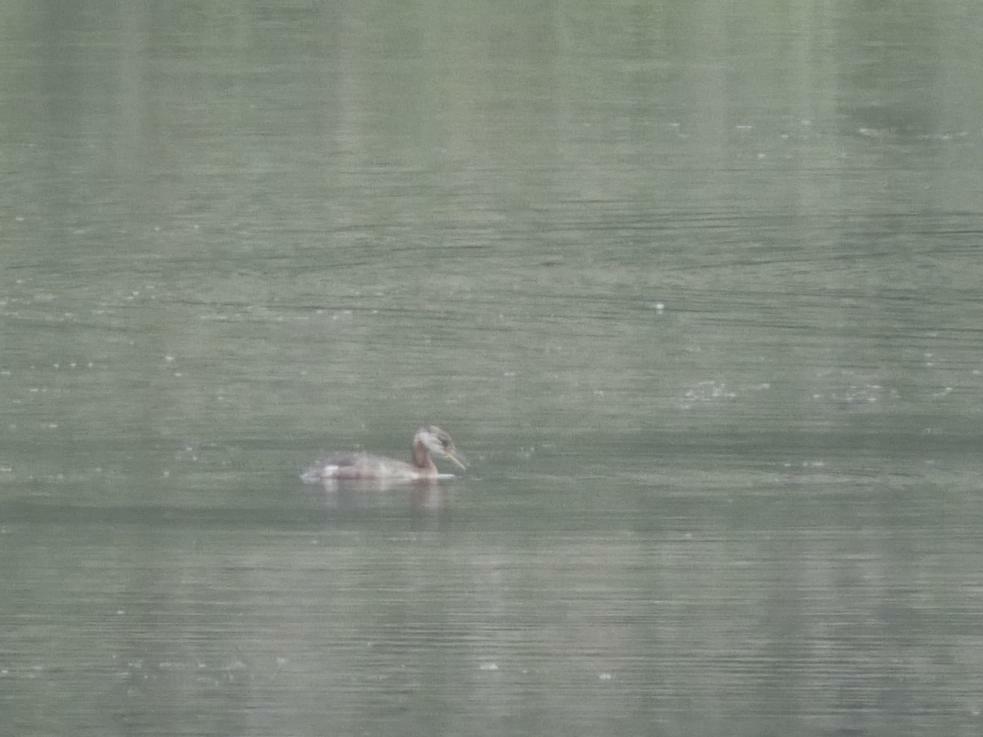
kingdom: Animalia
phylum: Chordata
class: Aves
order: Podicipediformes
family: Podicipedidae
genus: Podiceps
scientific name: Podiceps grisegena
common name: Red-necked grebe
